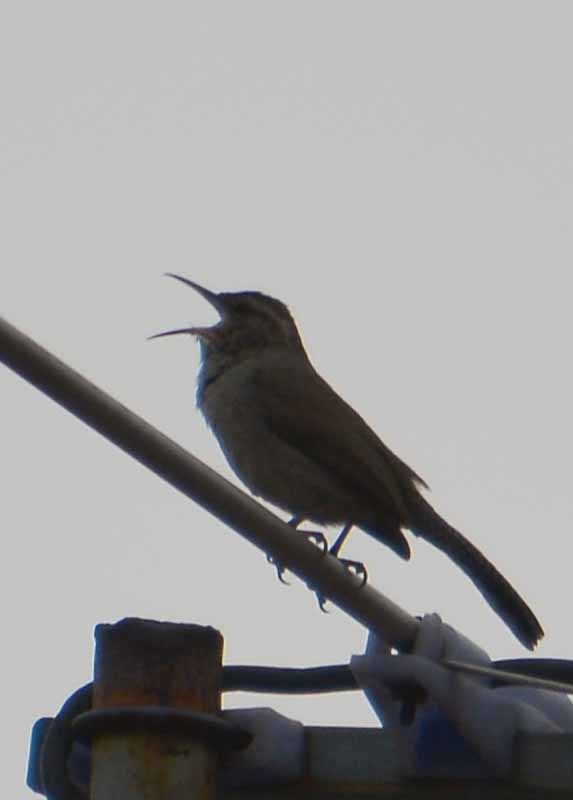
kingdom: Animalia
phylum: Chordata
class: Aves
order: Passeriformes
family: Troglodytidae
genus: Thryomanes
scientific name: Thryomanes bewickii
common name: Bewick's wren
